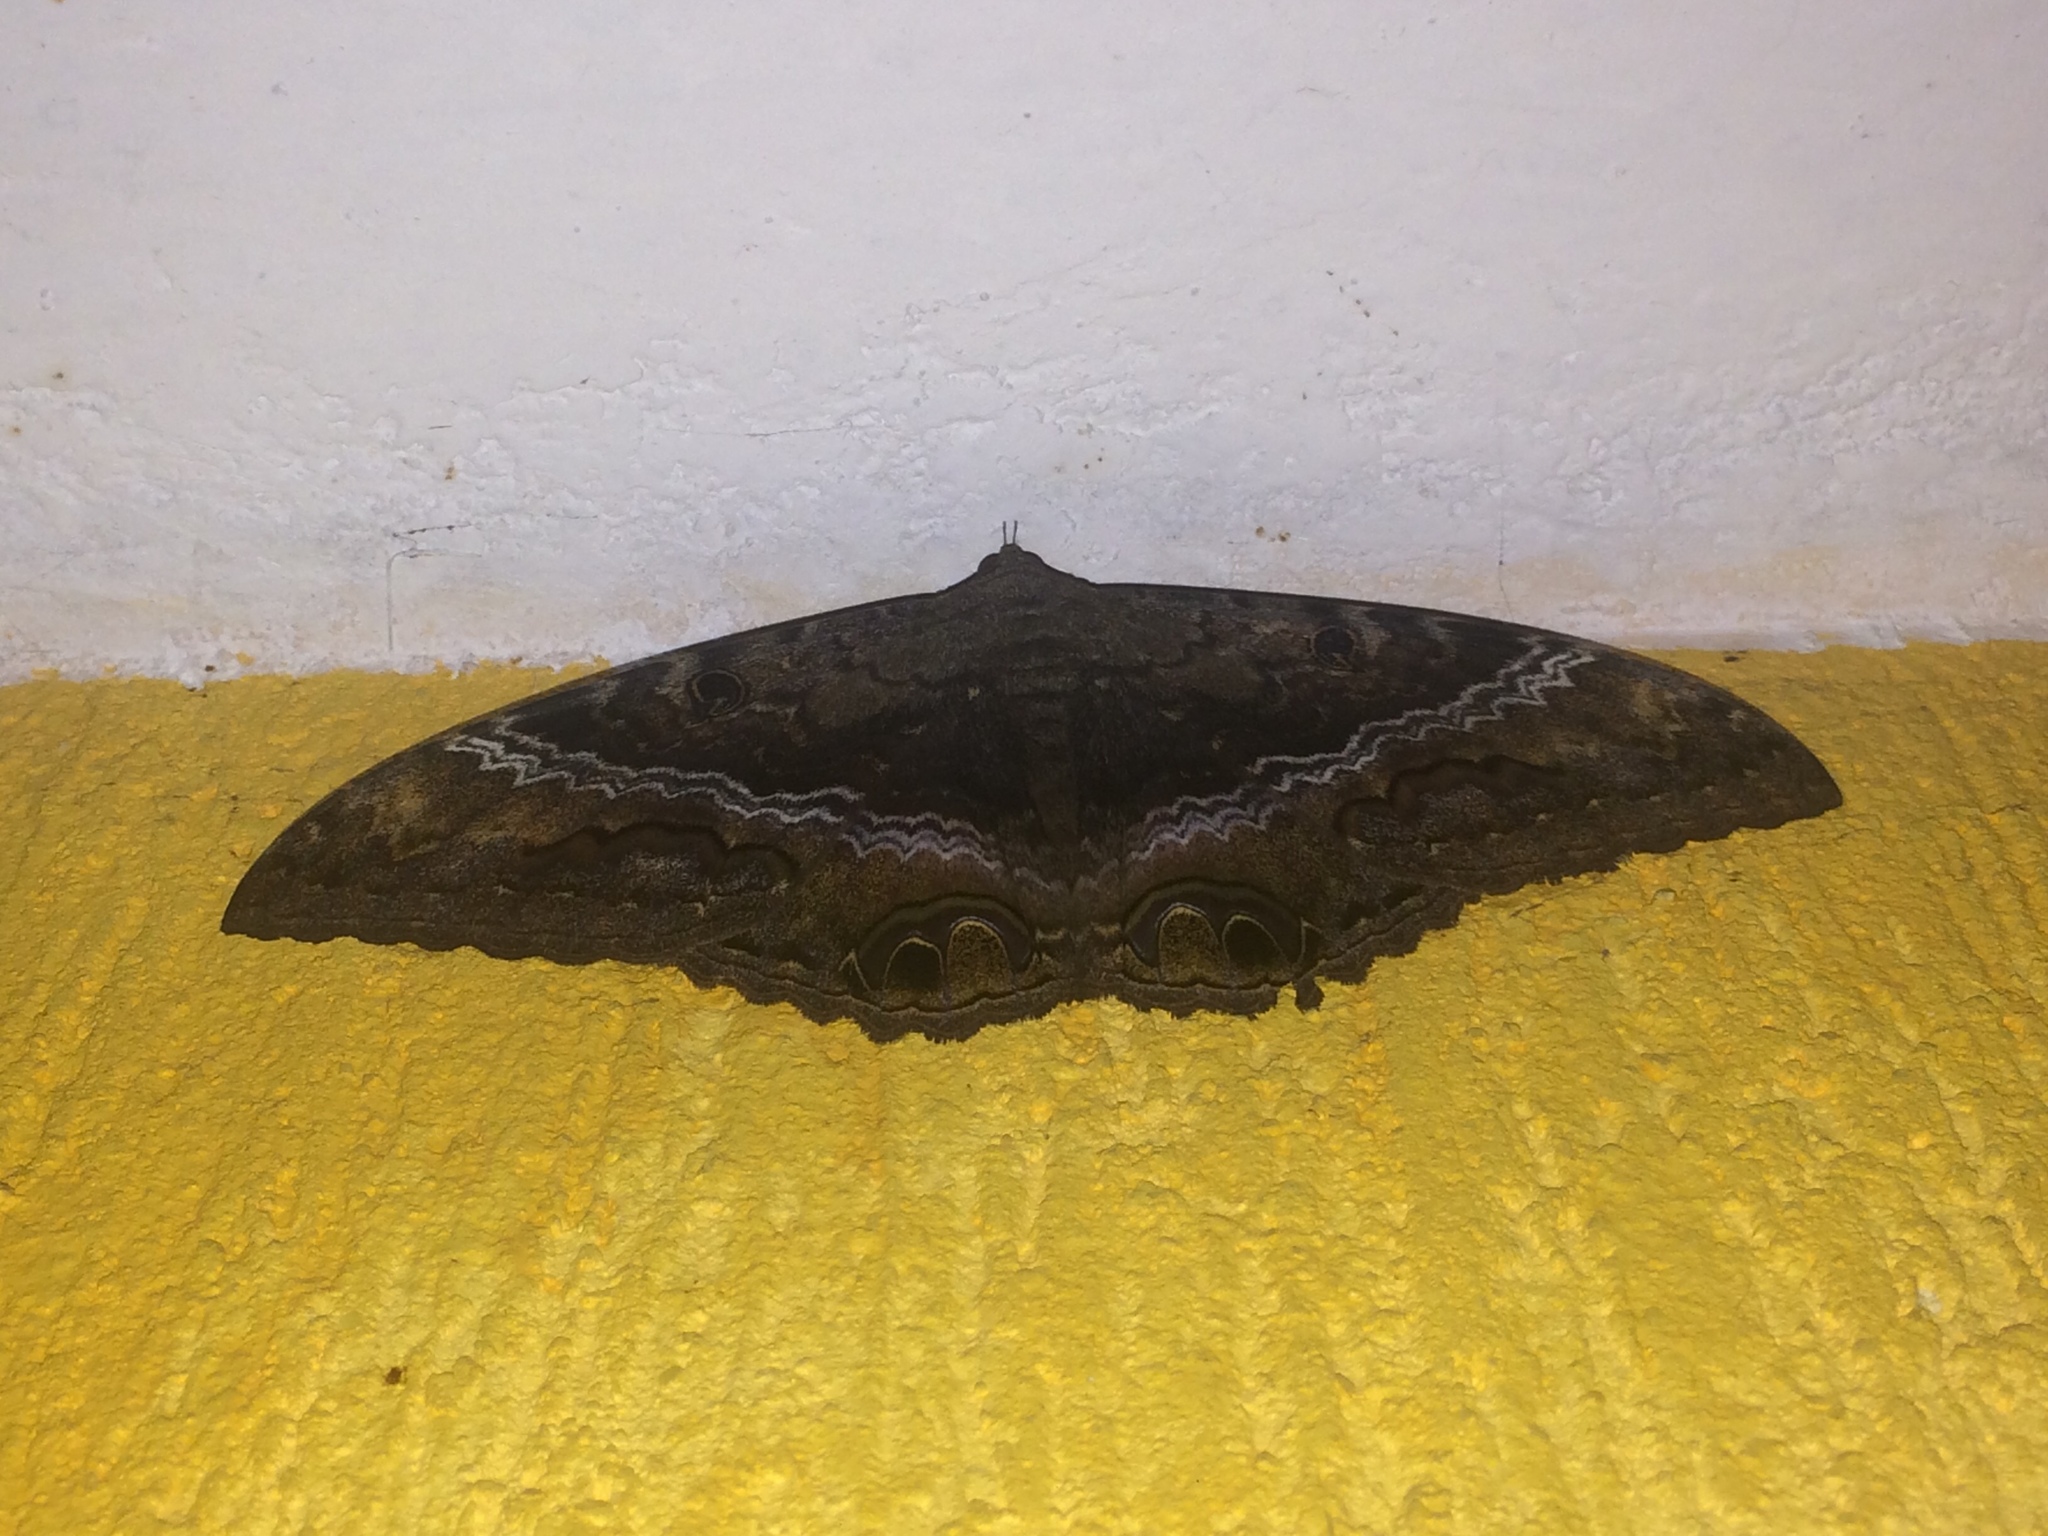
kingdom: Animalia
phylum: Arthropoda
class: Insecta
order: Lepidoptera
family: Erebidae
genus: Ascalapha
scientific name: Ascalapha odorata
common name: Black witch
